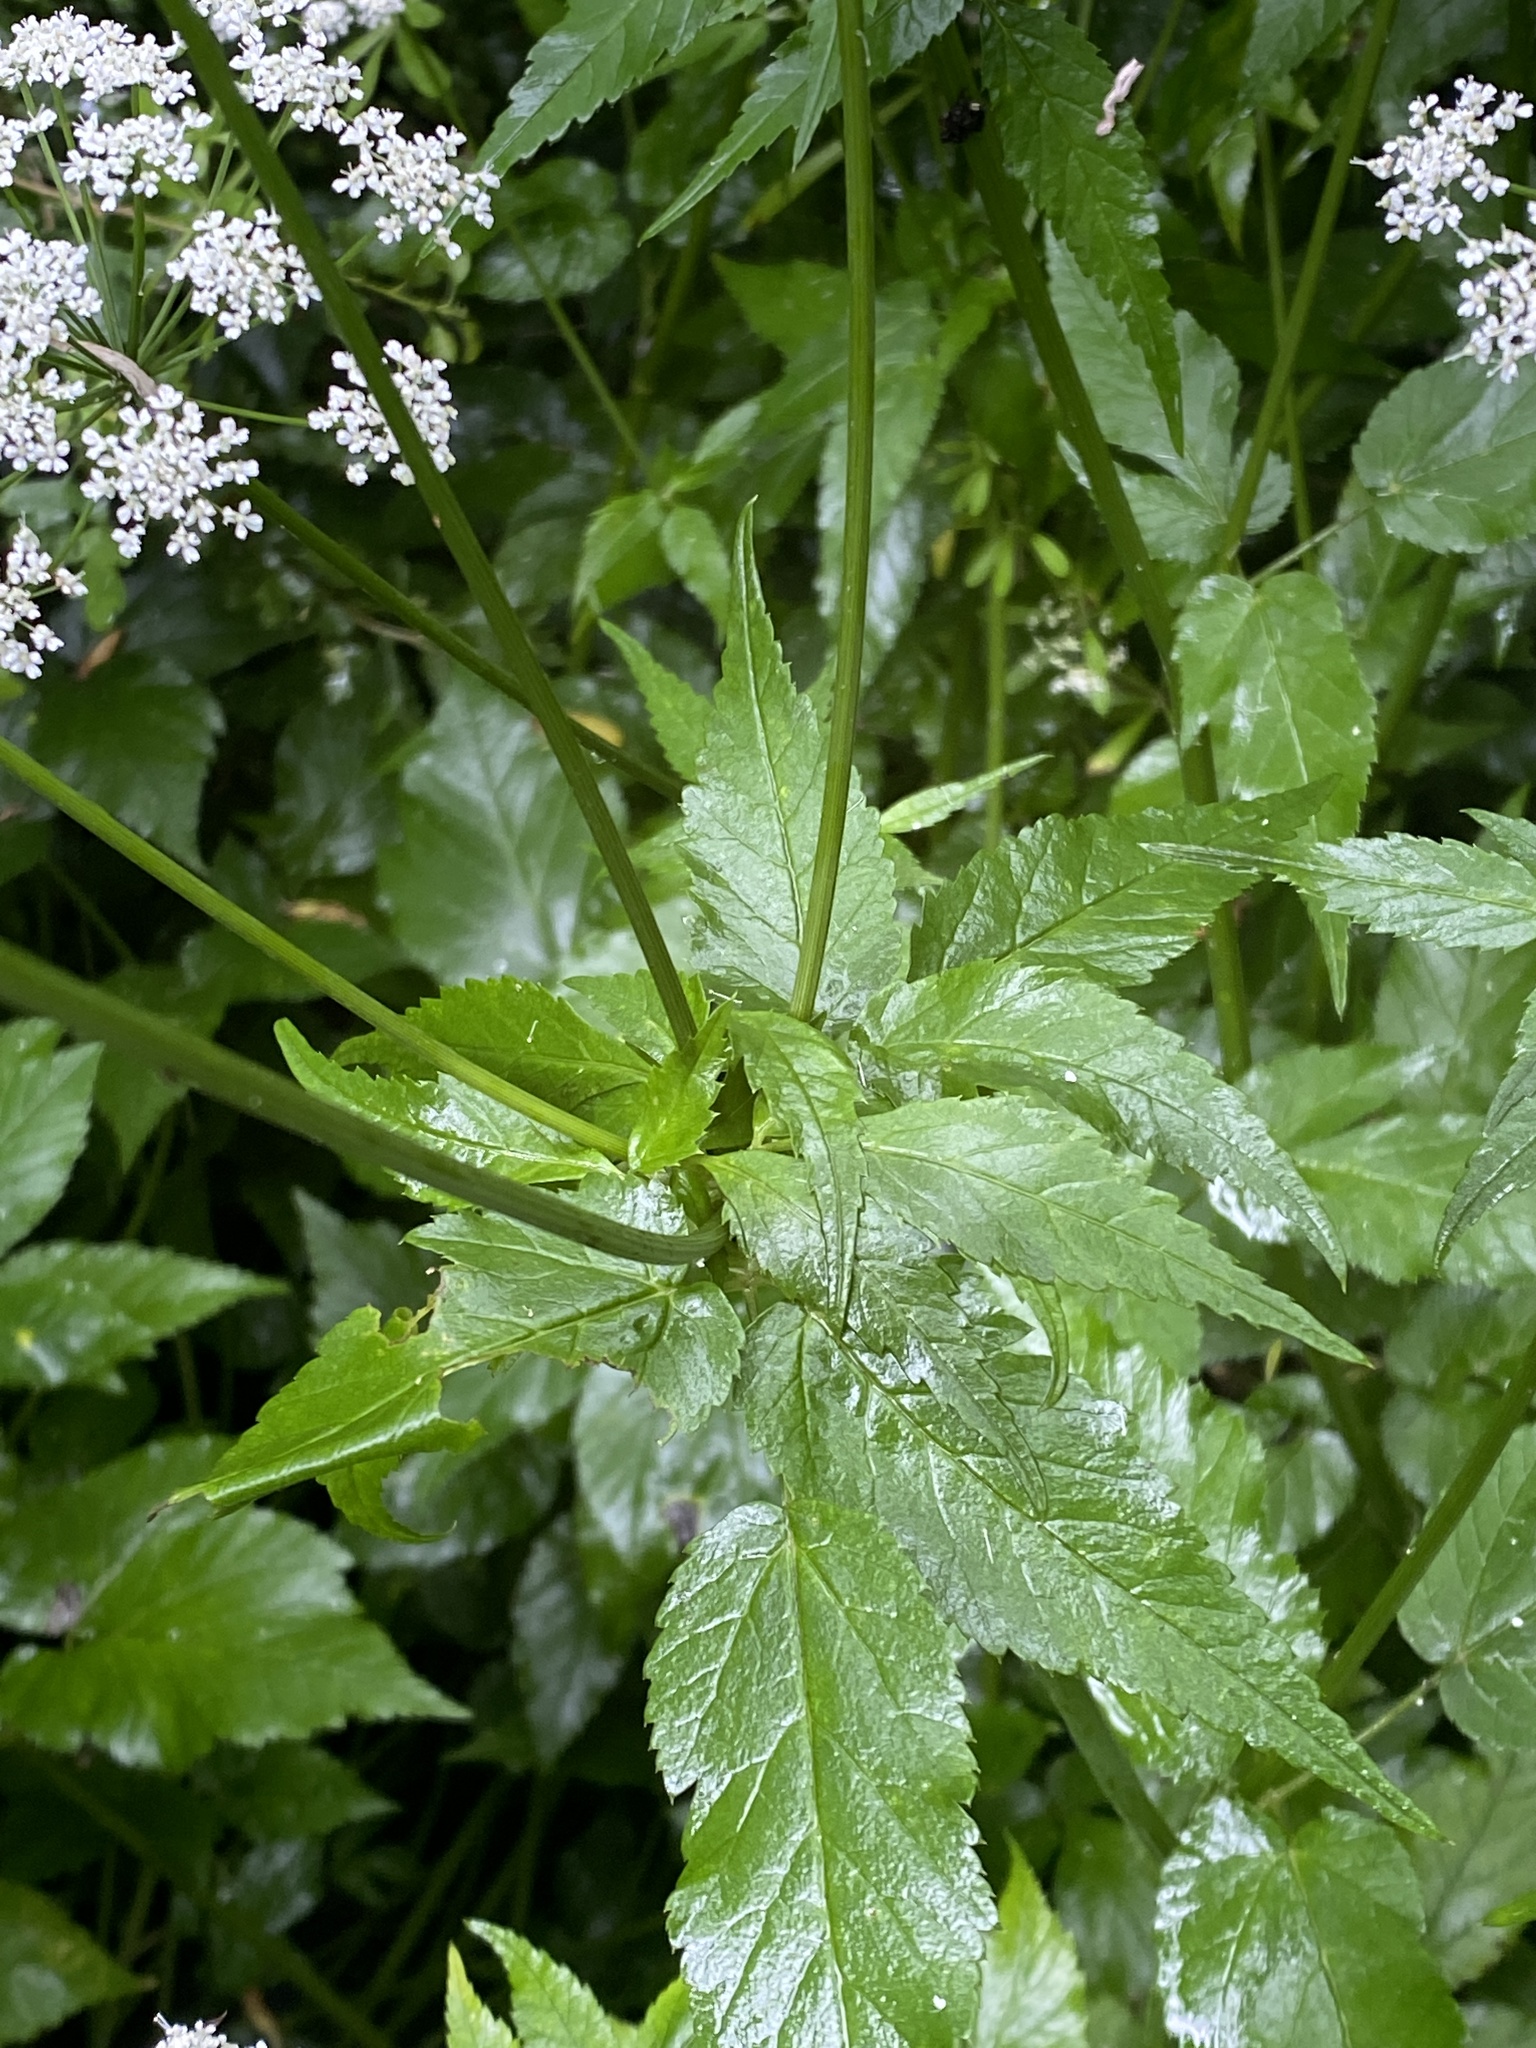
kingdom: Plantae
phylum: Tracheophyta
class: Magnoliopsida
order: Apiales
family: Apiaceae
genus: Aegopodium
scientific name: Aegopodium podagraria
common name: Ground-elder
